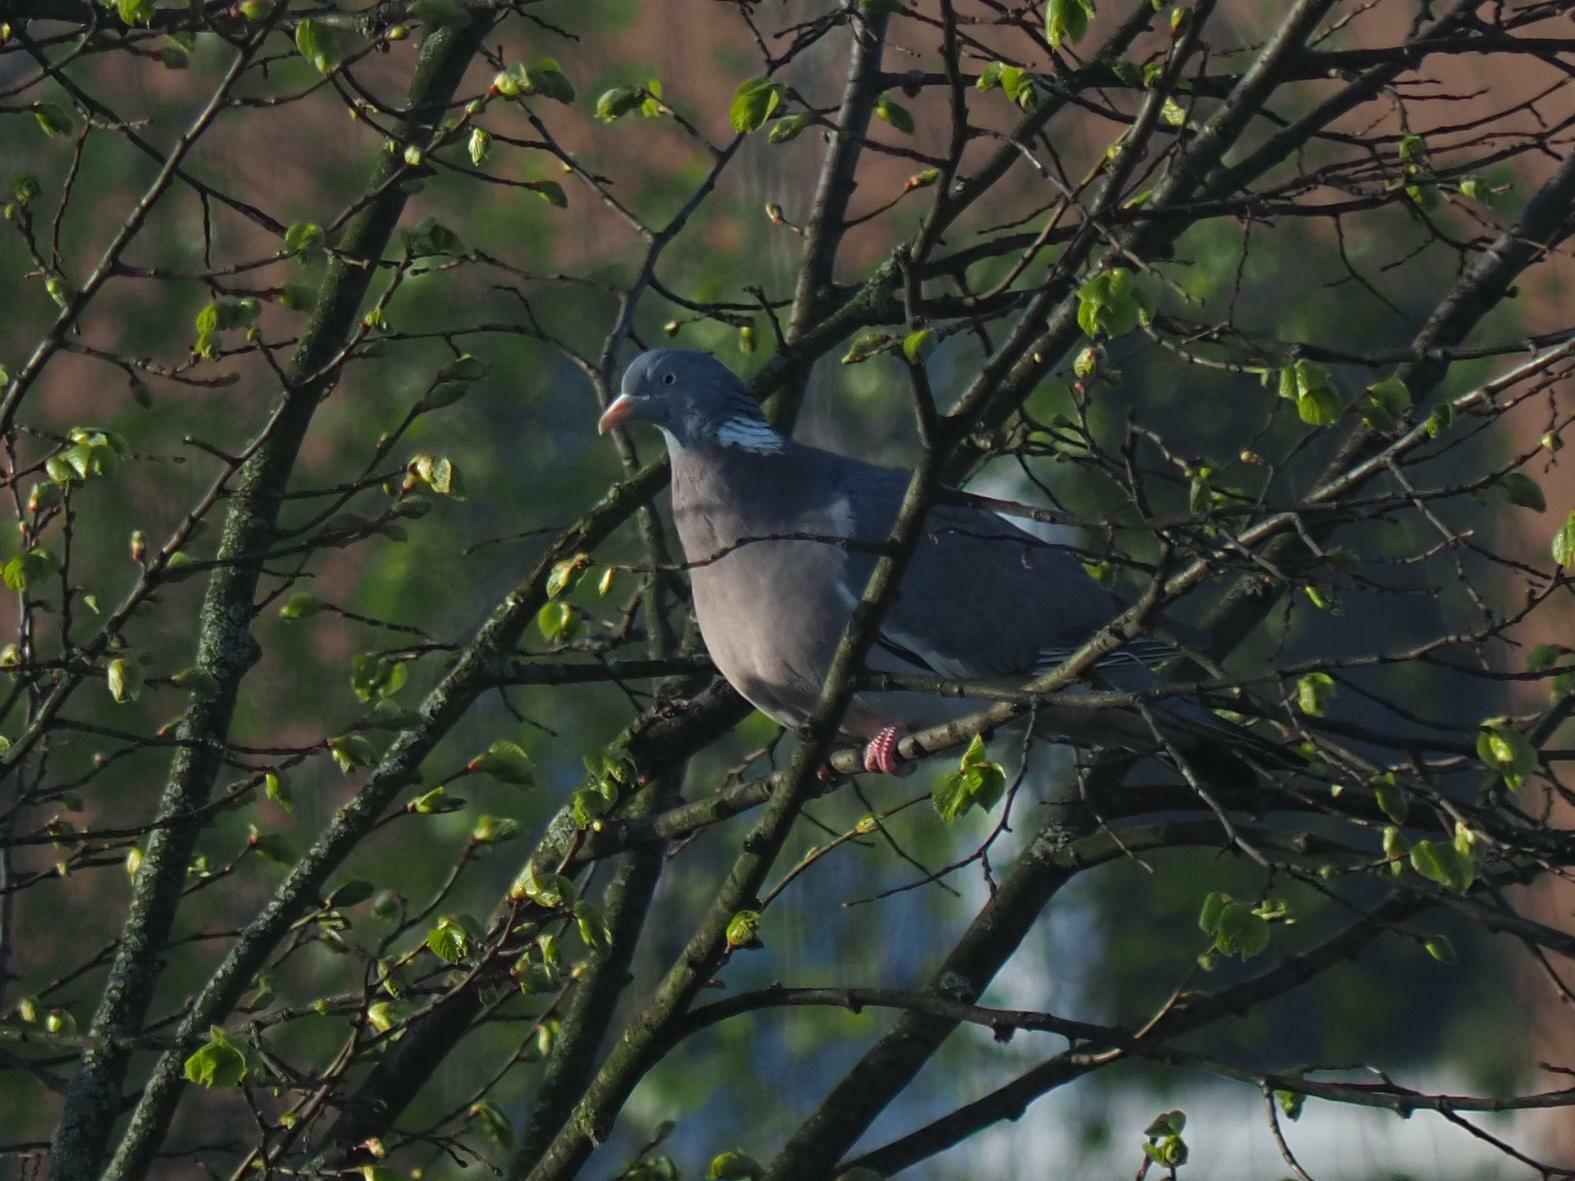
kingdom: Animalia
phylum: Chordata
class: Aves
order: Columbiformes
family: Columbidae
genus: Columba
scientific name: Columba palumbus
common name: Common wood pigeon
